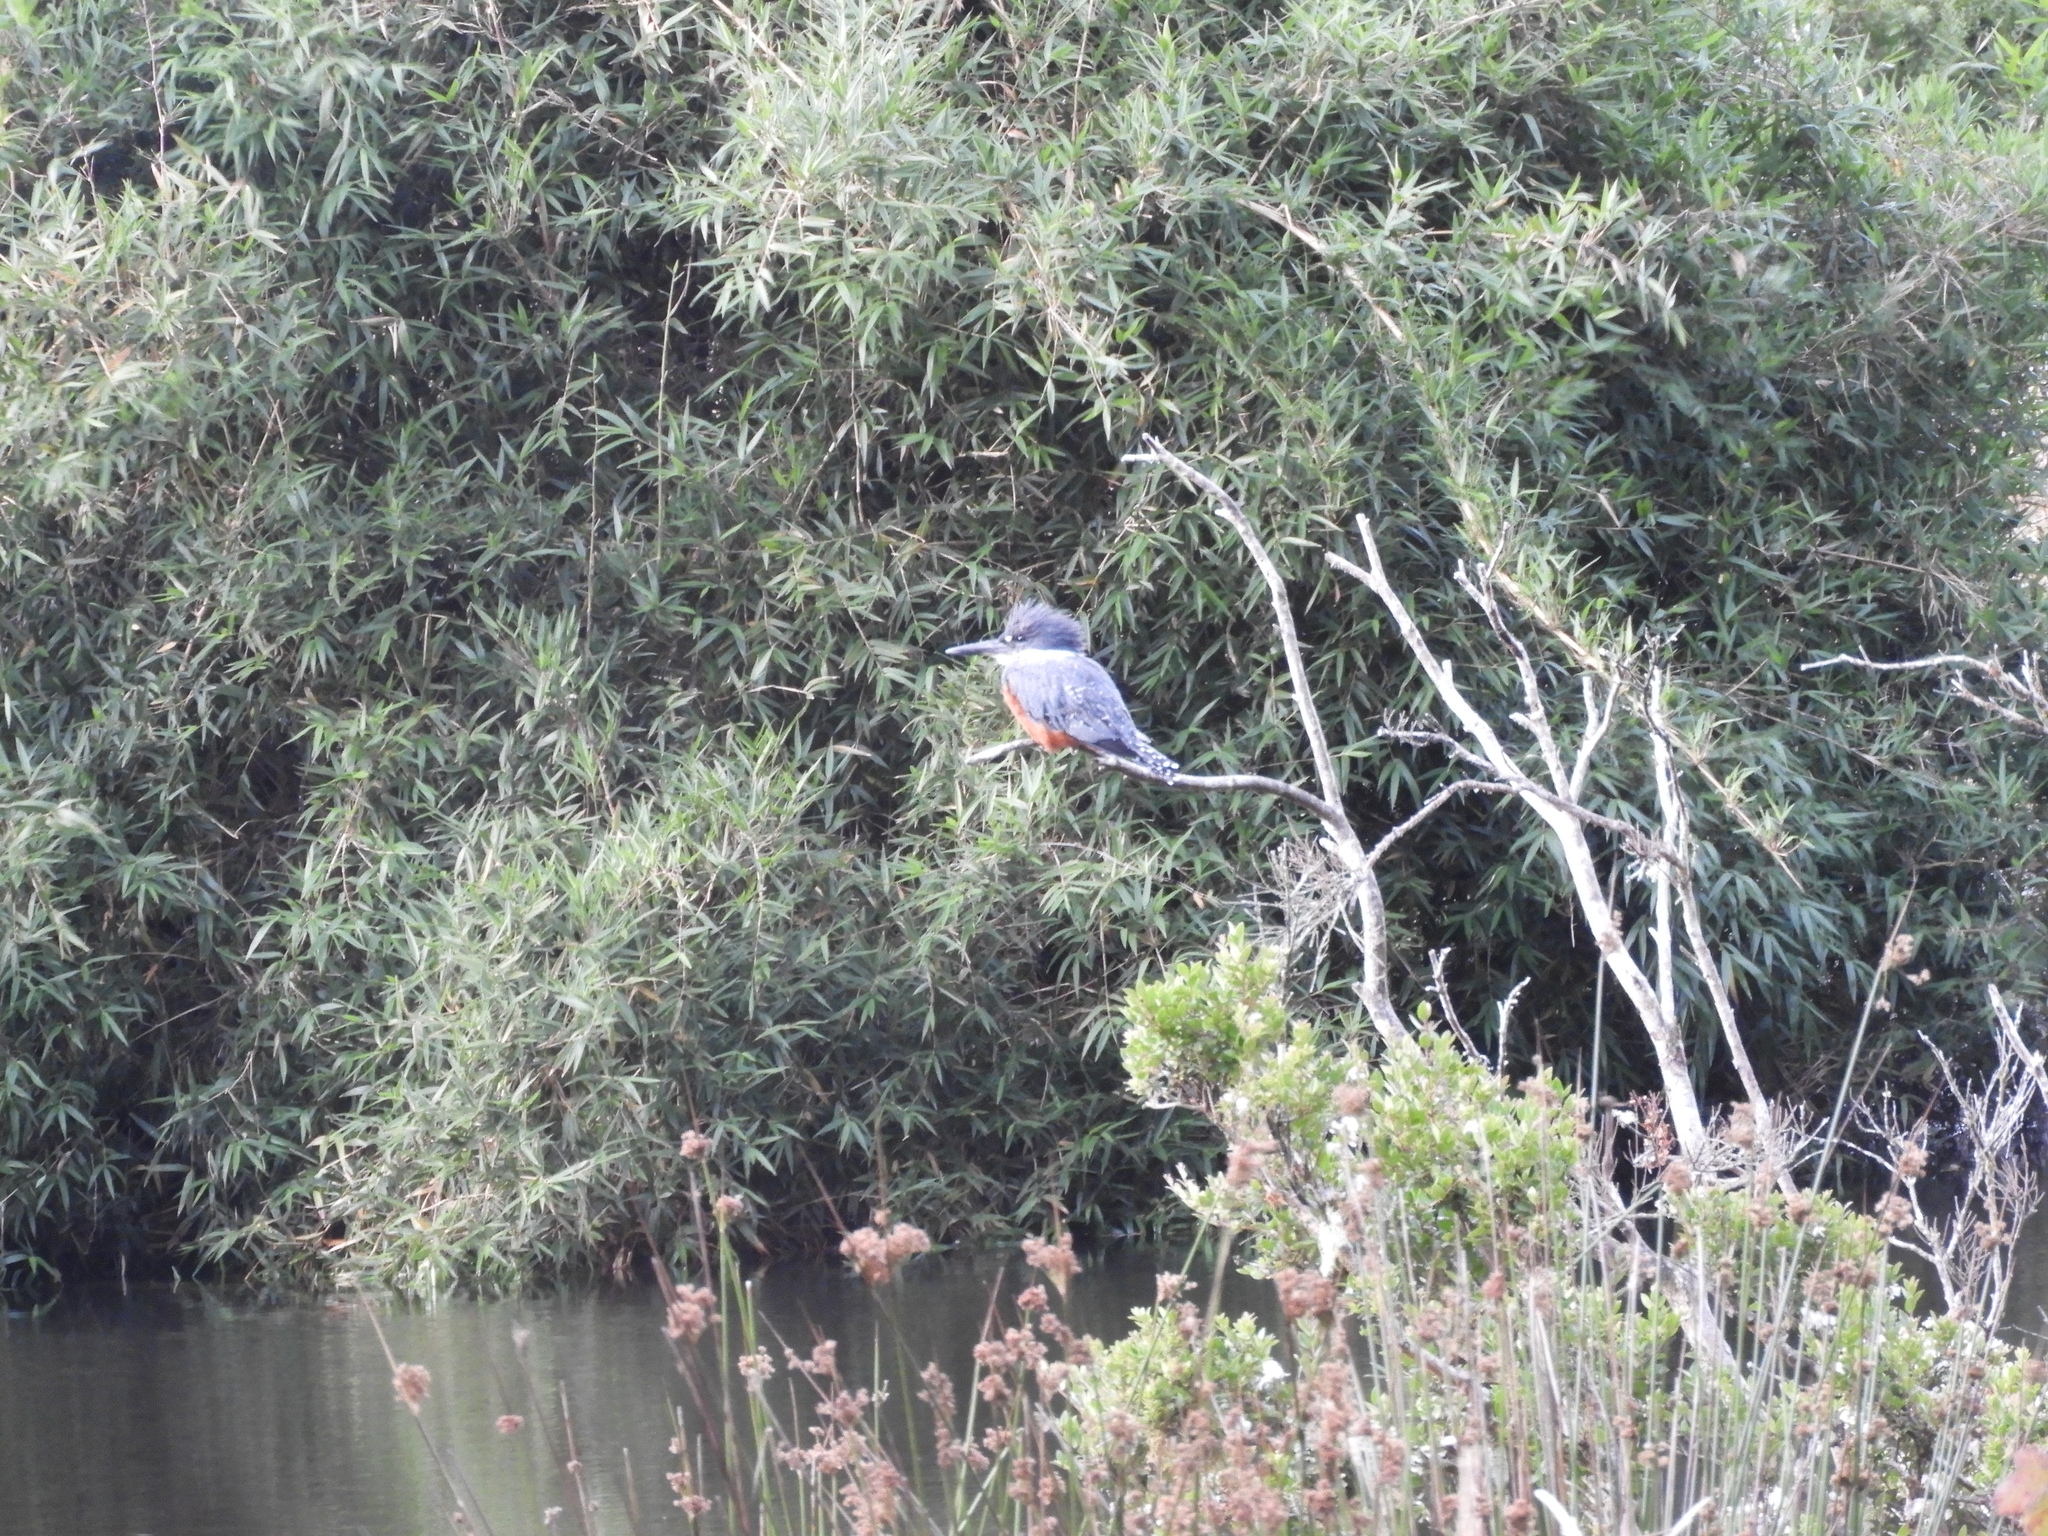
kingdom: Animalia
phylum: Chordata
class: Aves
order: Coraciiformes
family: Alcedinidae
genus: Megaceryle
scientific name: Megaceryle torquata
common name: Ringed kingfisher
